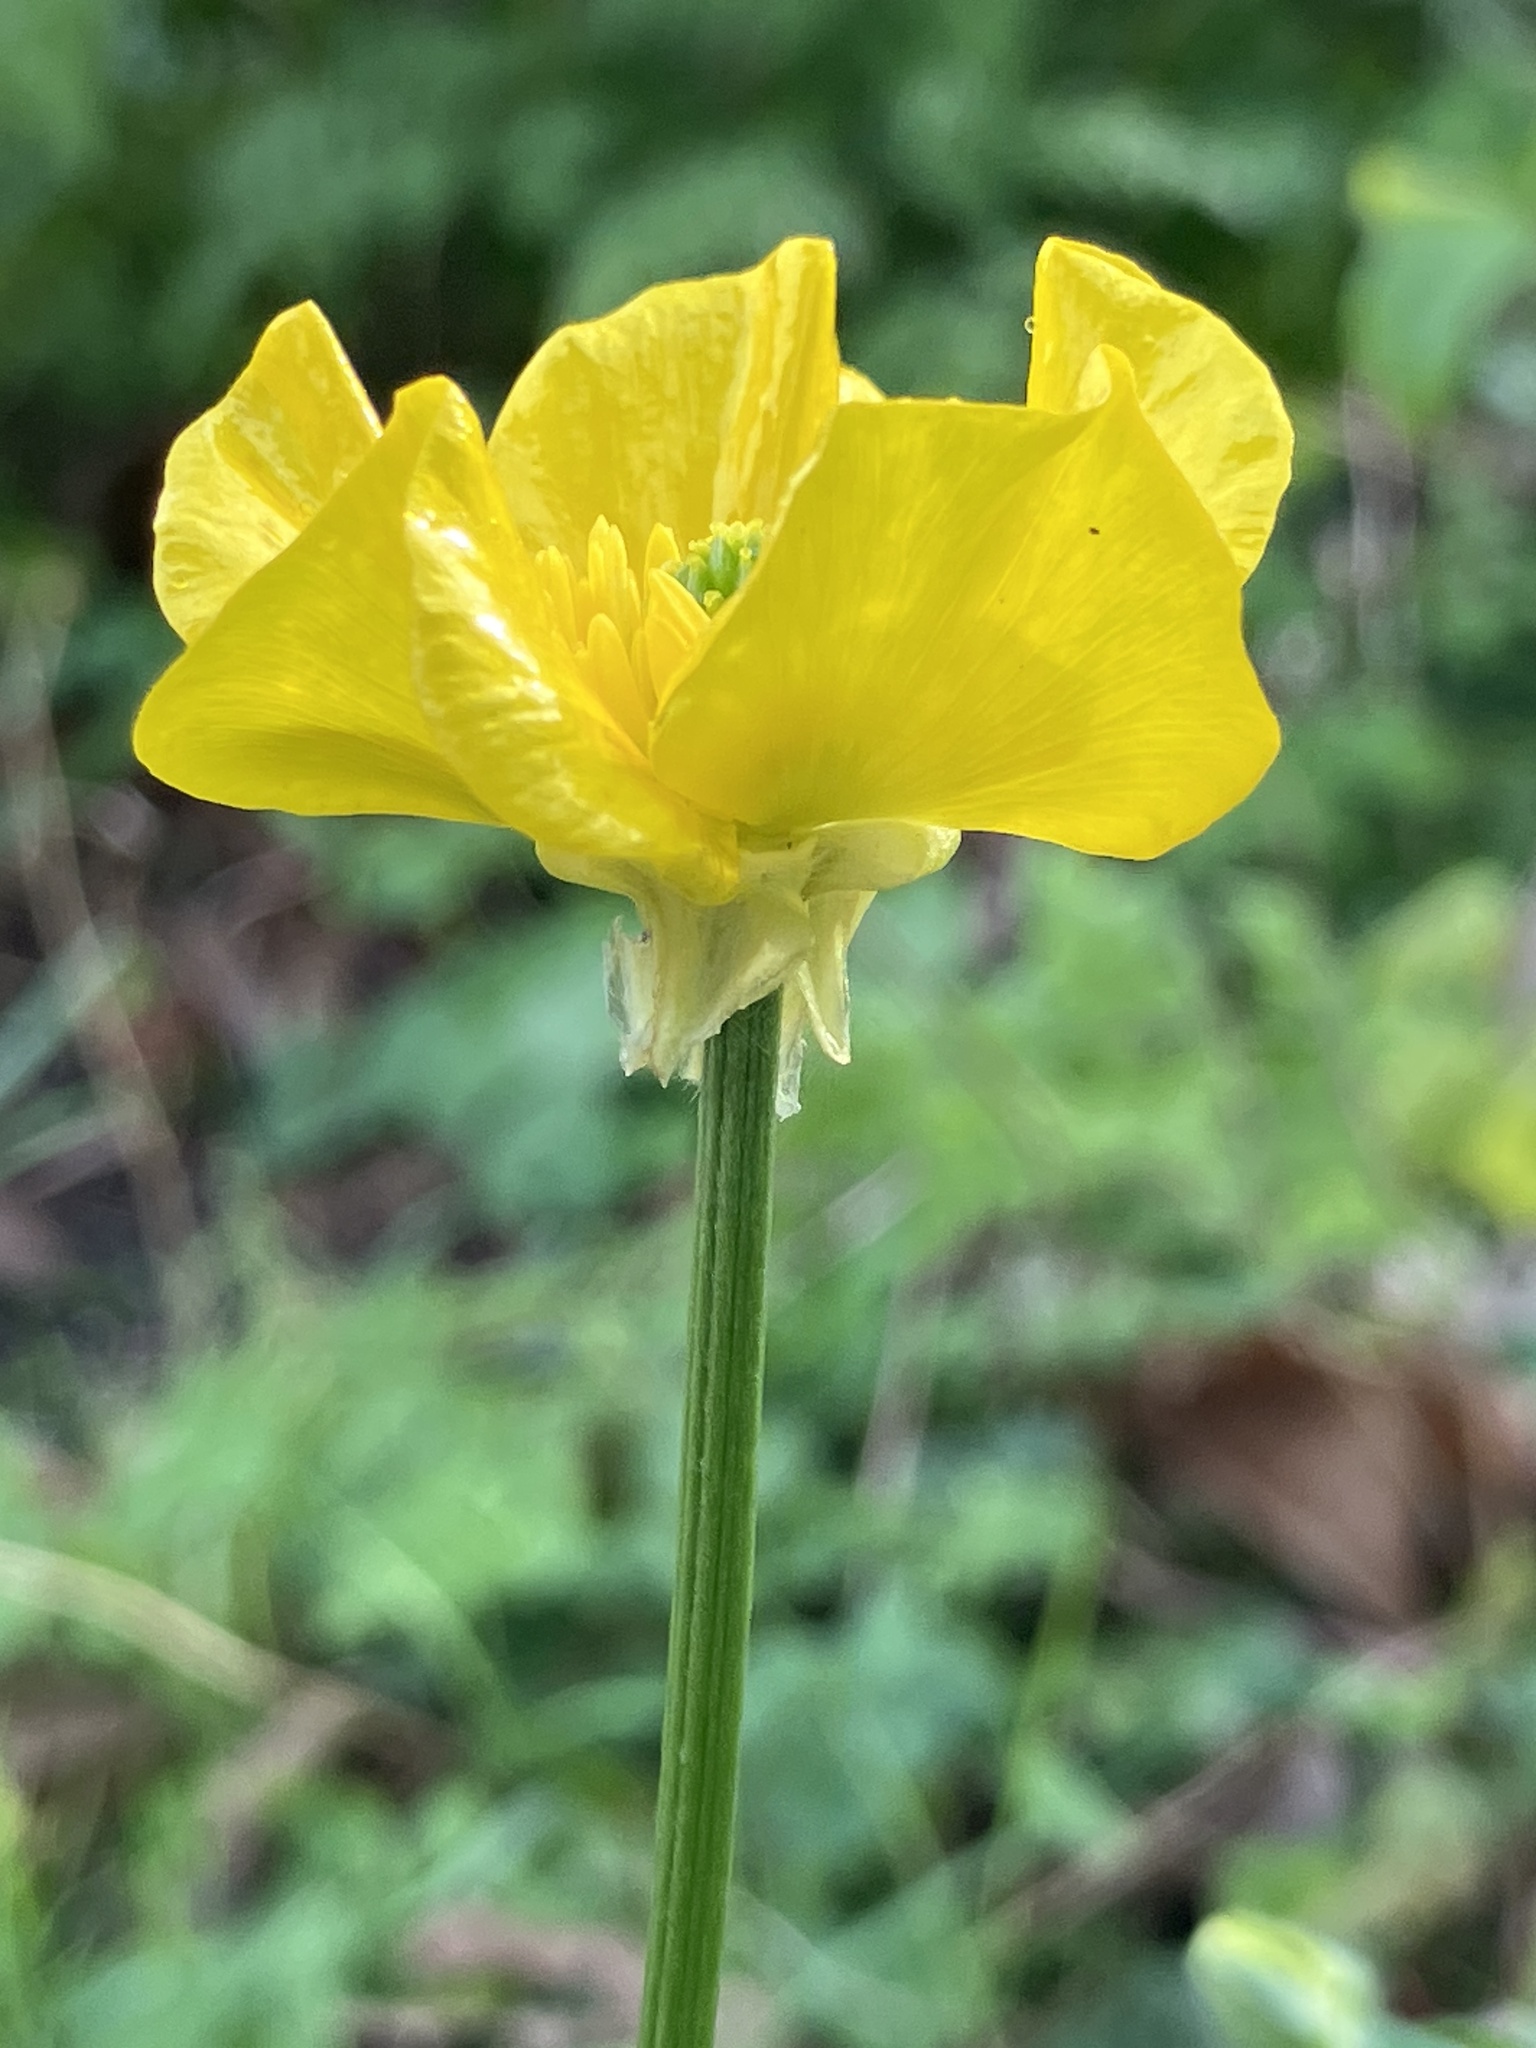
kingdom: Plantae
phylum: Tracheophyta
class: Magnoliopsida
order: Ranunculales
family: Ranunculaceae
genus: Ranunculus
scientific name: Ranunculus bulbosus
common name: Bulbous buttercup
